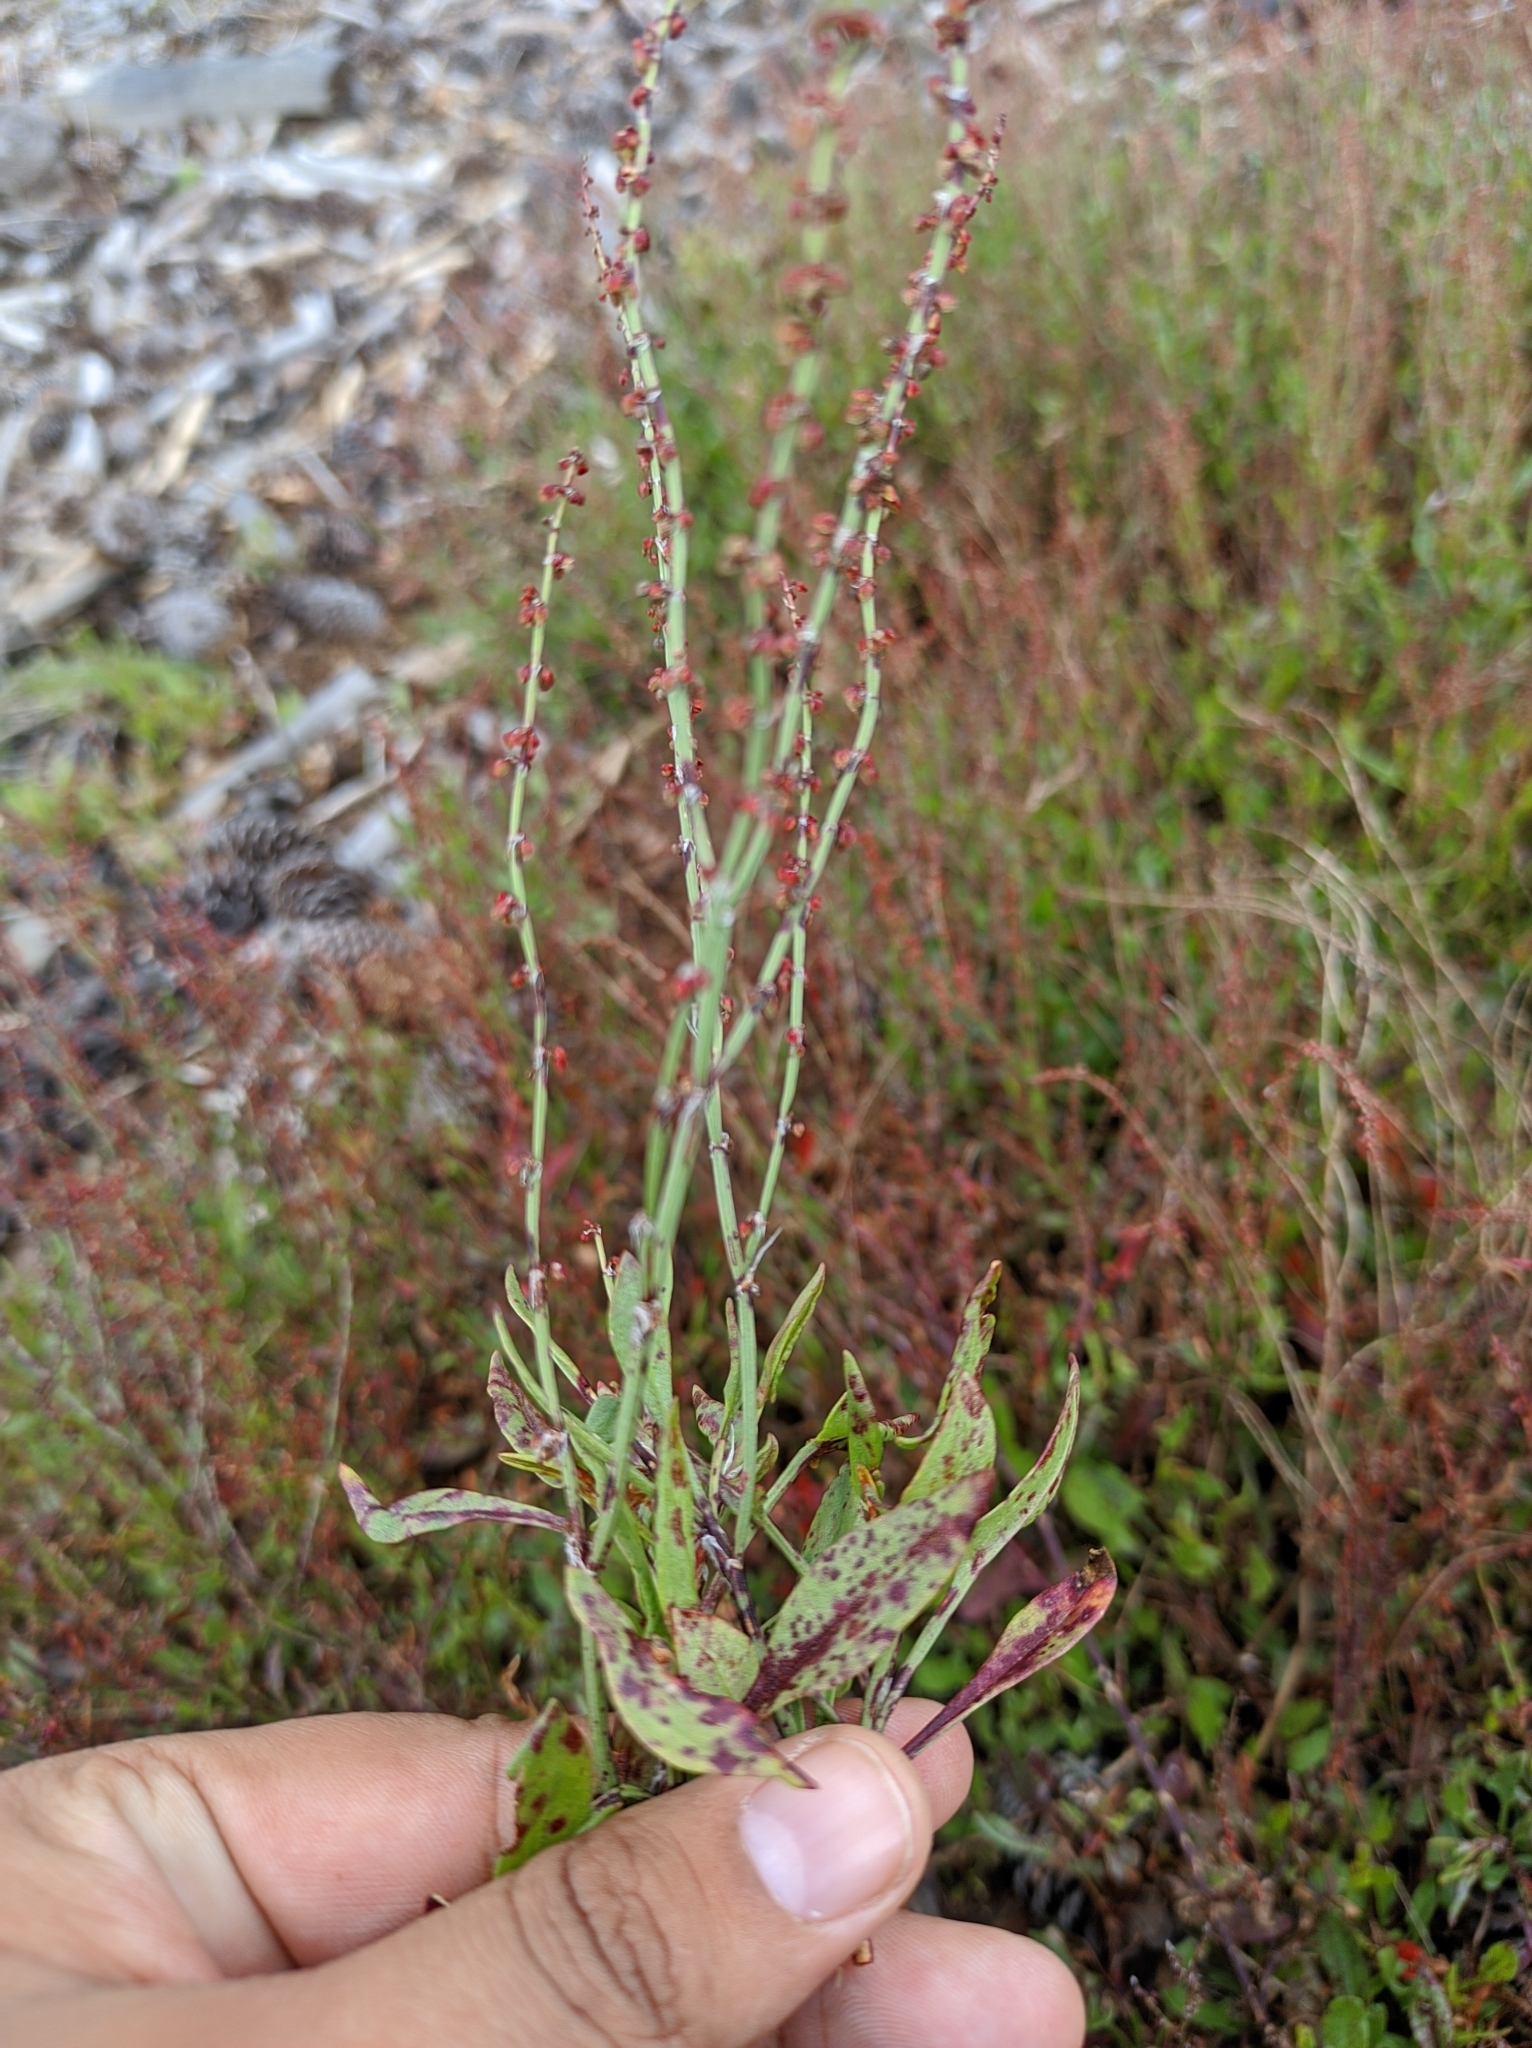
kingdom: Plantae
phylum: Tracheophyta
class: Magnoliopsida
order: Caryophyllales
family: Polygonaceae
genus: Rumex
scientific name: Rumex acetosella
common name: Common sheep sorrel
